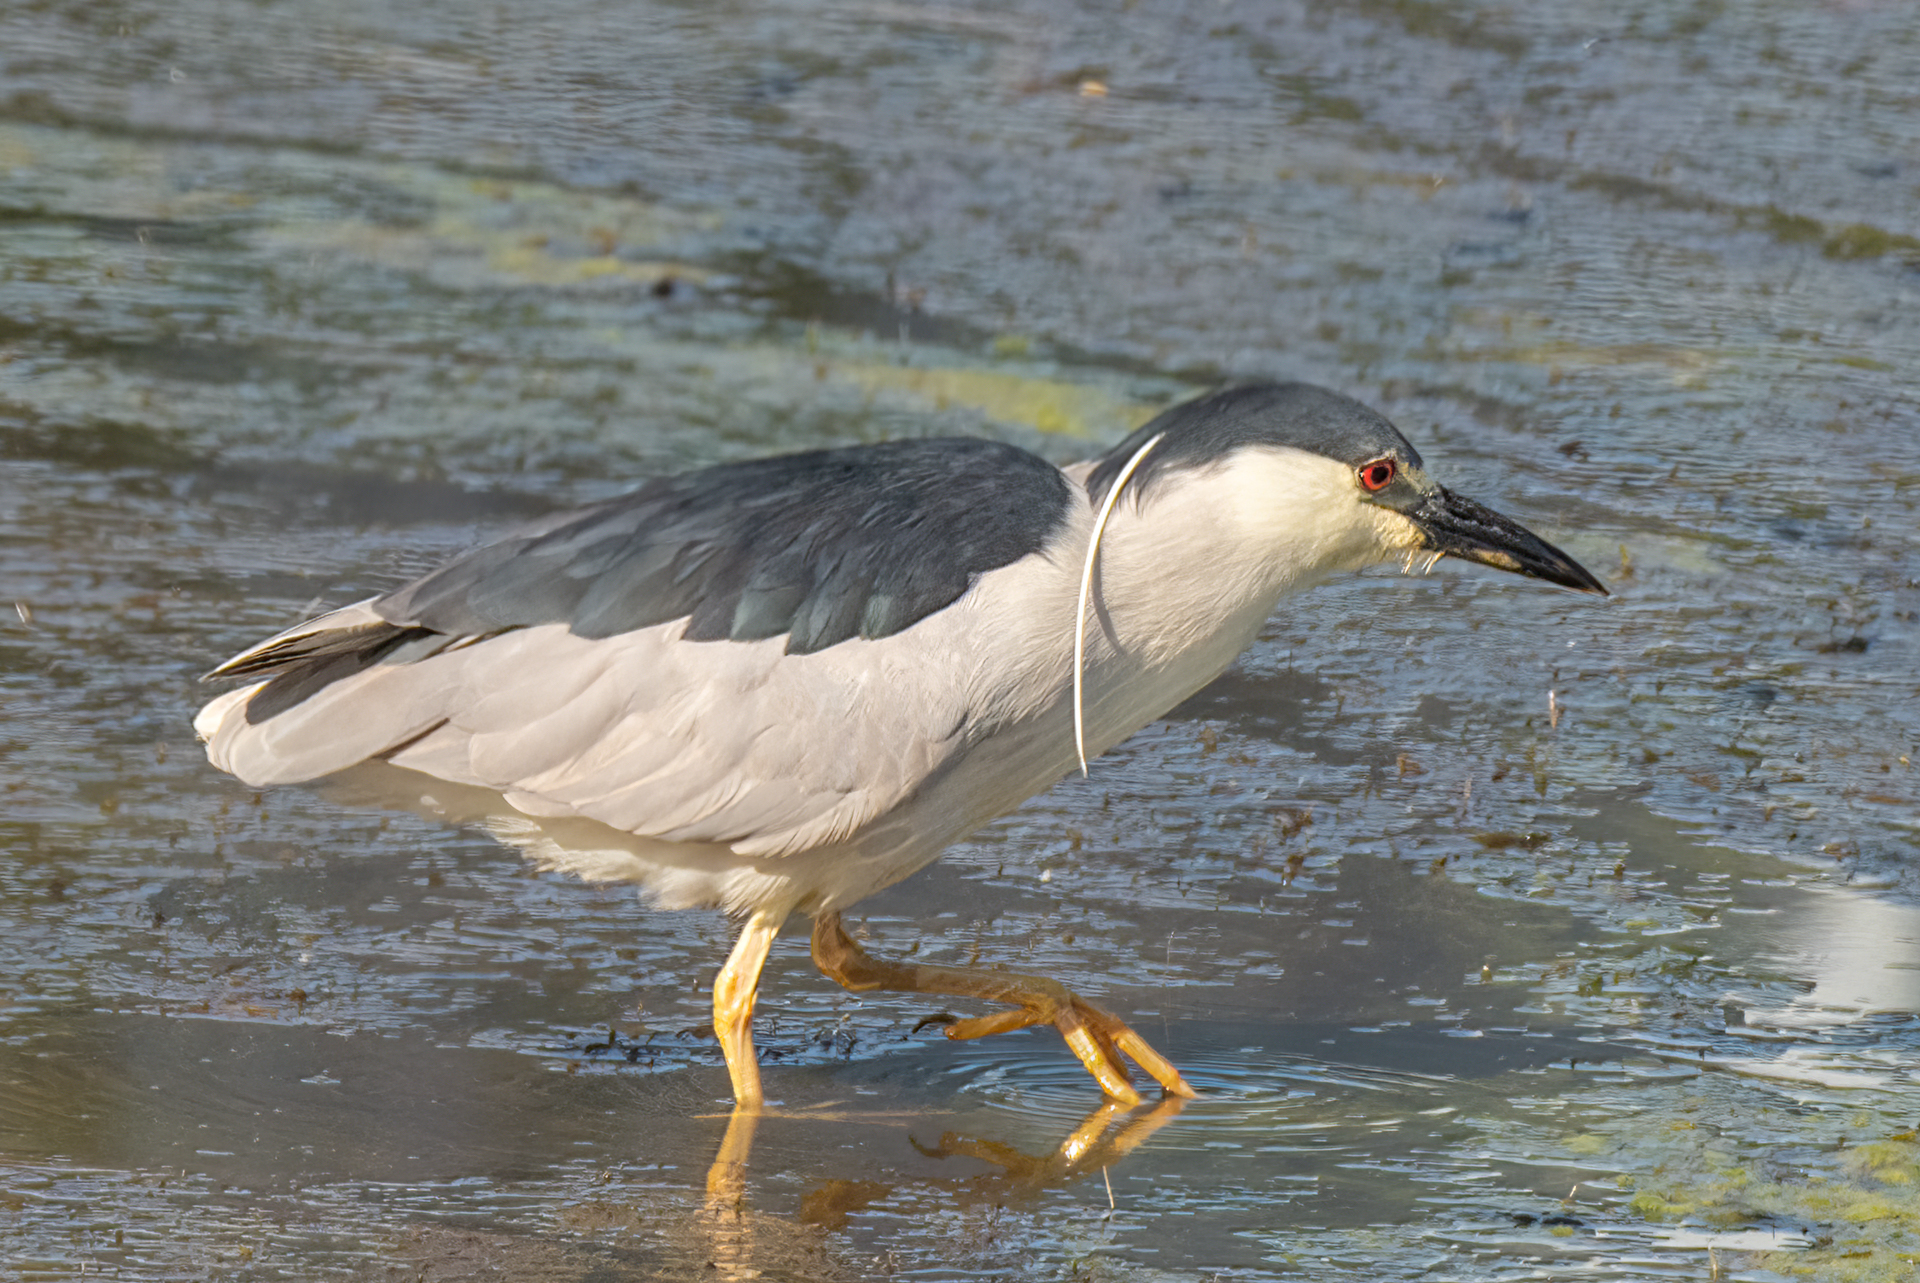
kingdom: Animalia
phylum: Chordata
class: Aves
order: Pelecaniformes
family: Ardeidae
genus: Nycticorax
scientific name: Nycticorax nycticorax
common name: Black-crowned night heron
